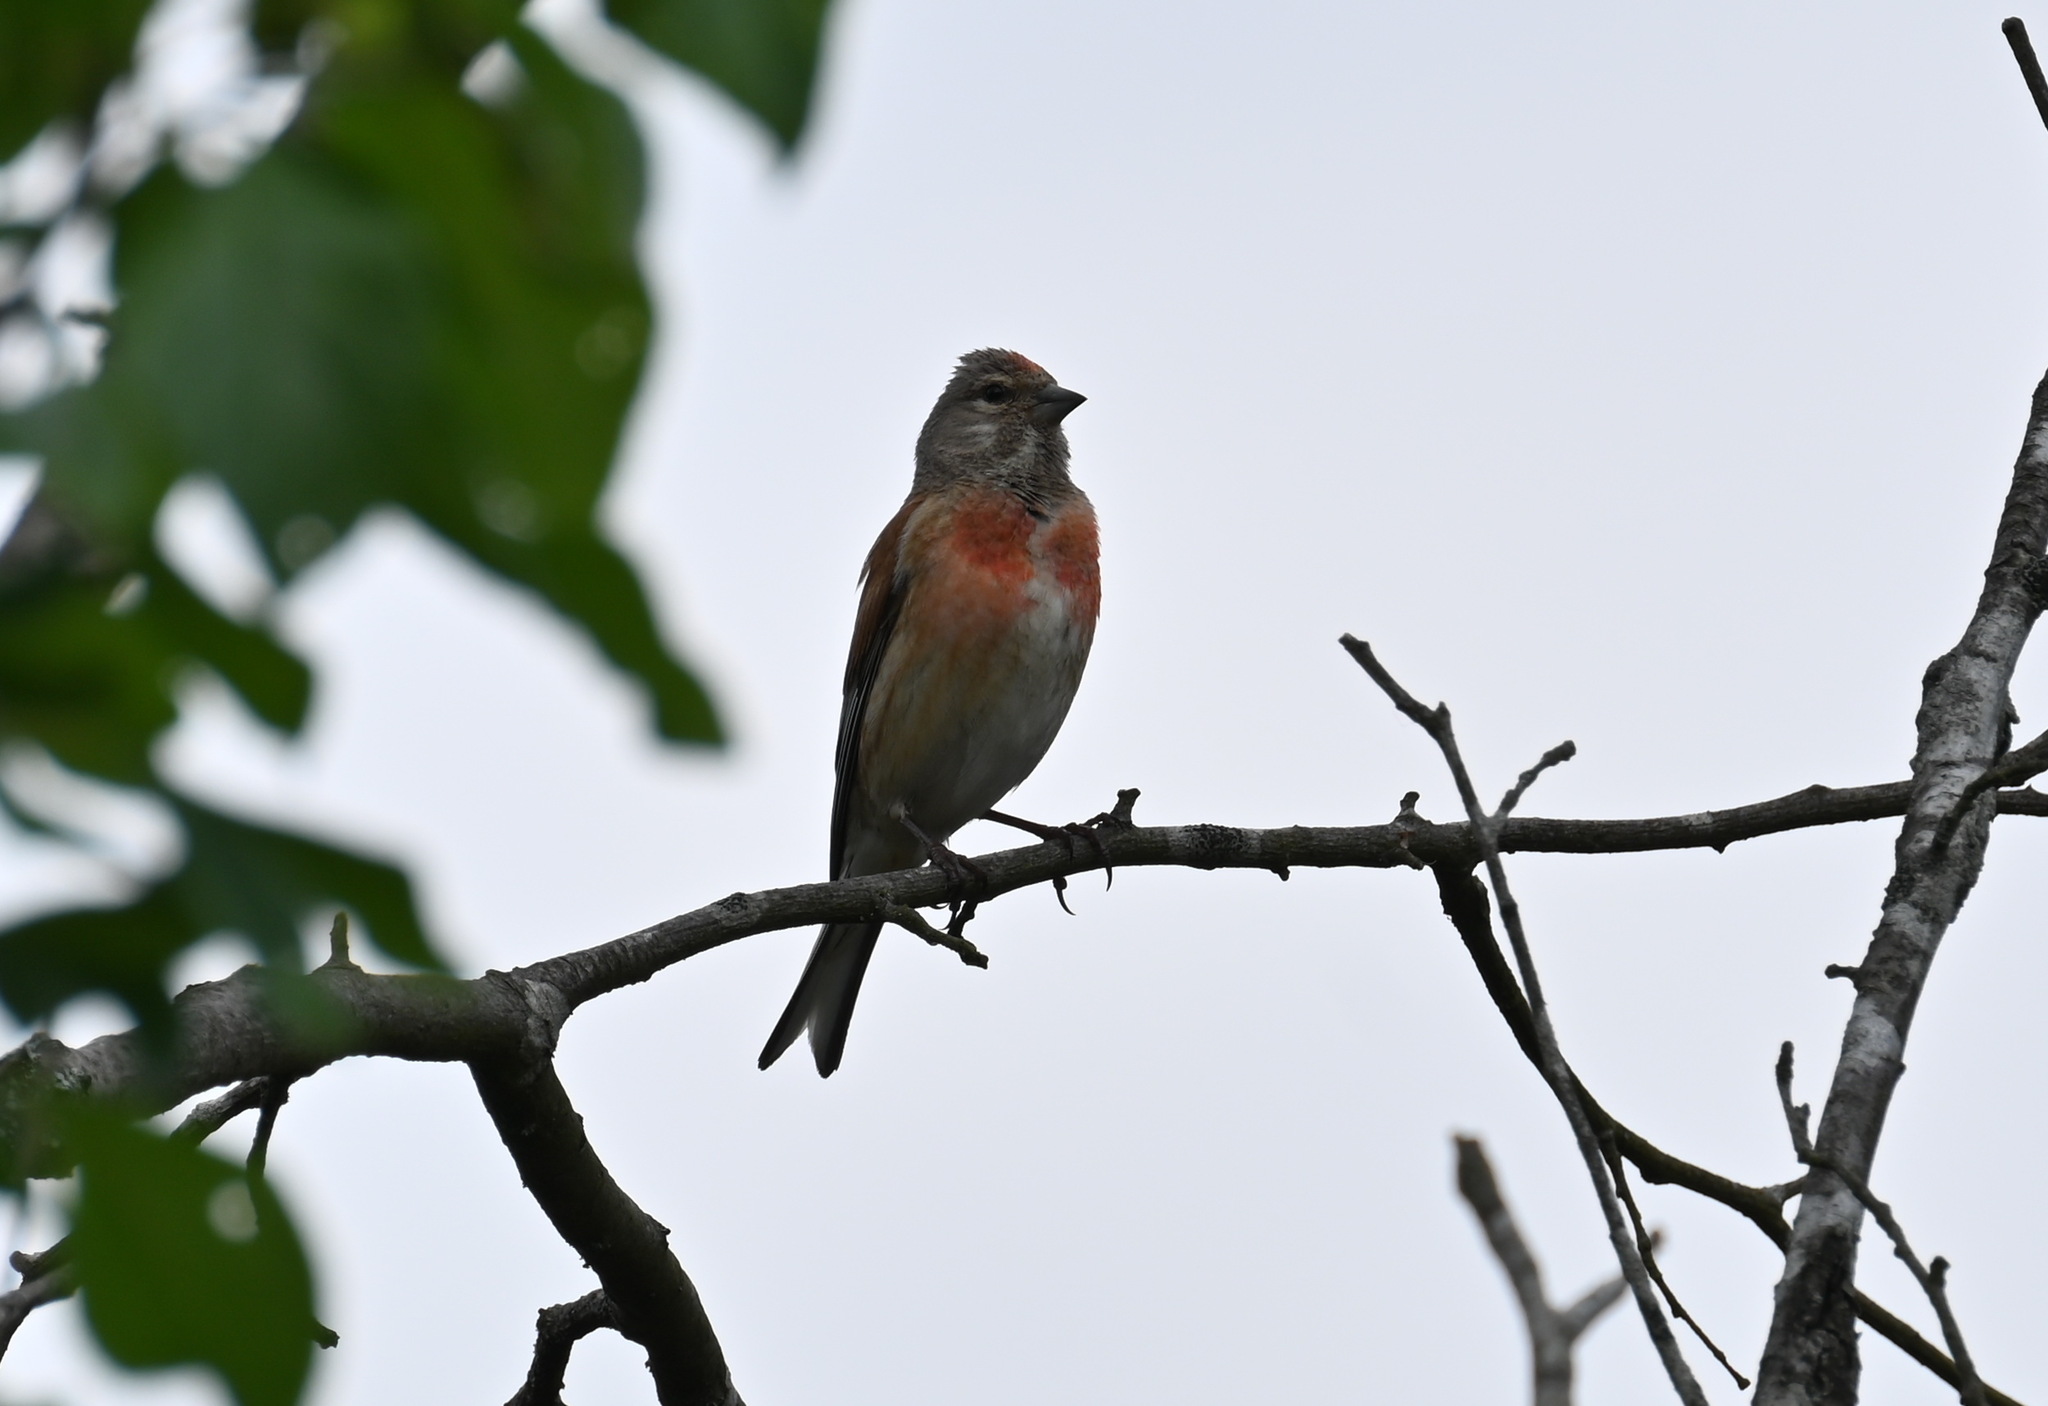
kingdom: Animalia
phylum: Chordata
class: Aves
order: Passeriformes
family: Fringillidae
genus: Linaria
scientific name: Linaria cannabina
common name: Common linnet
